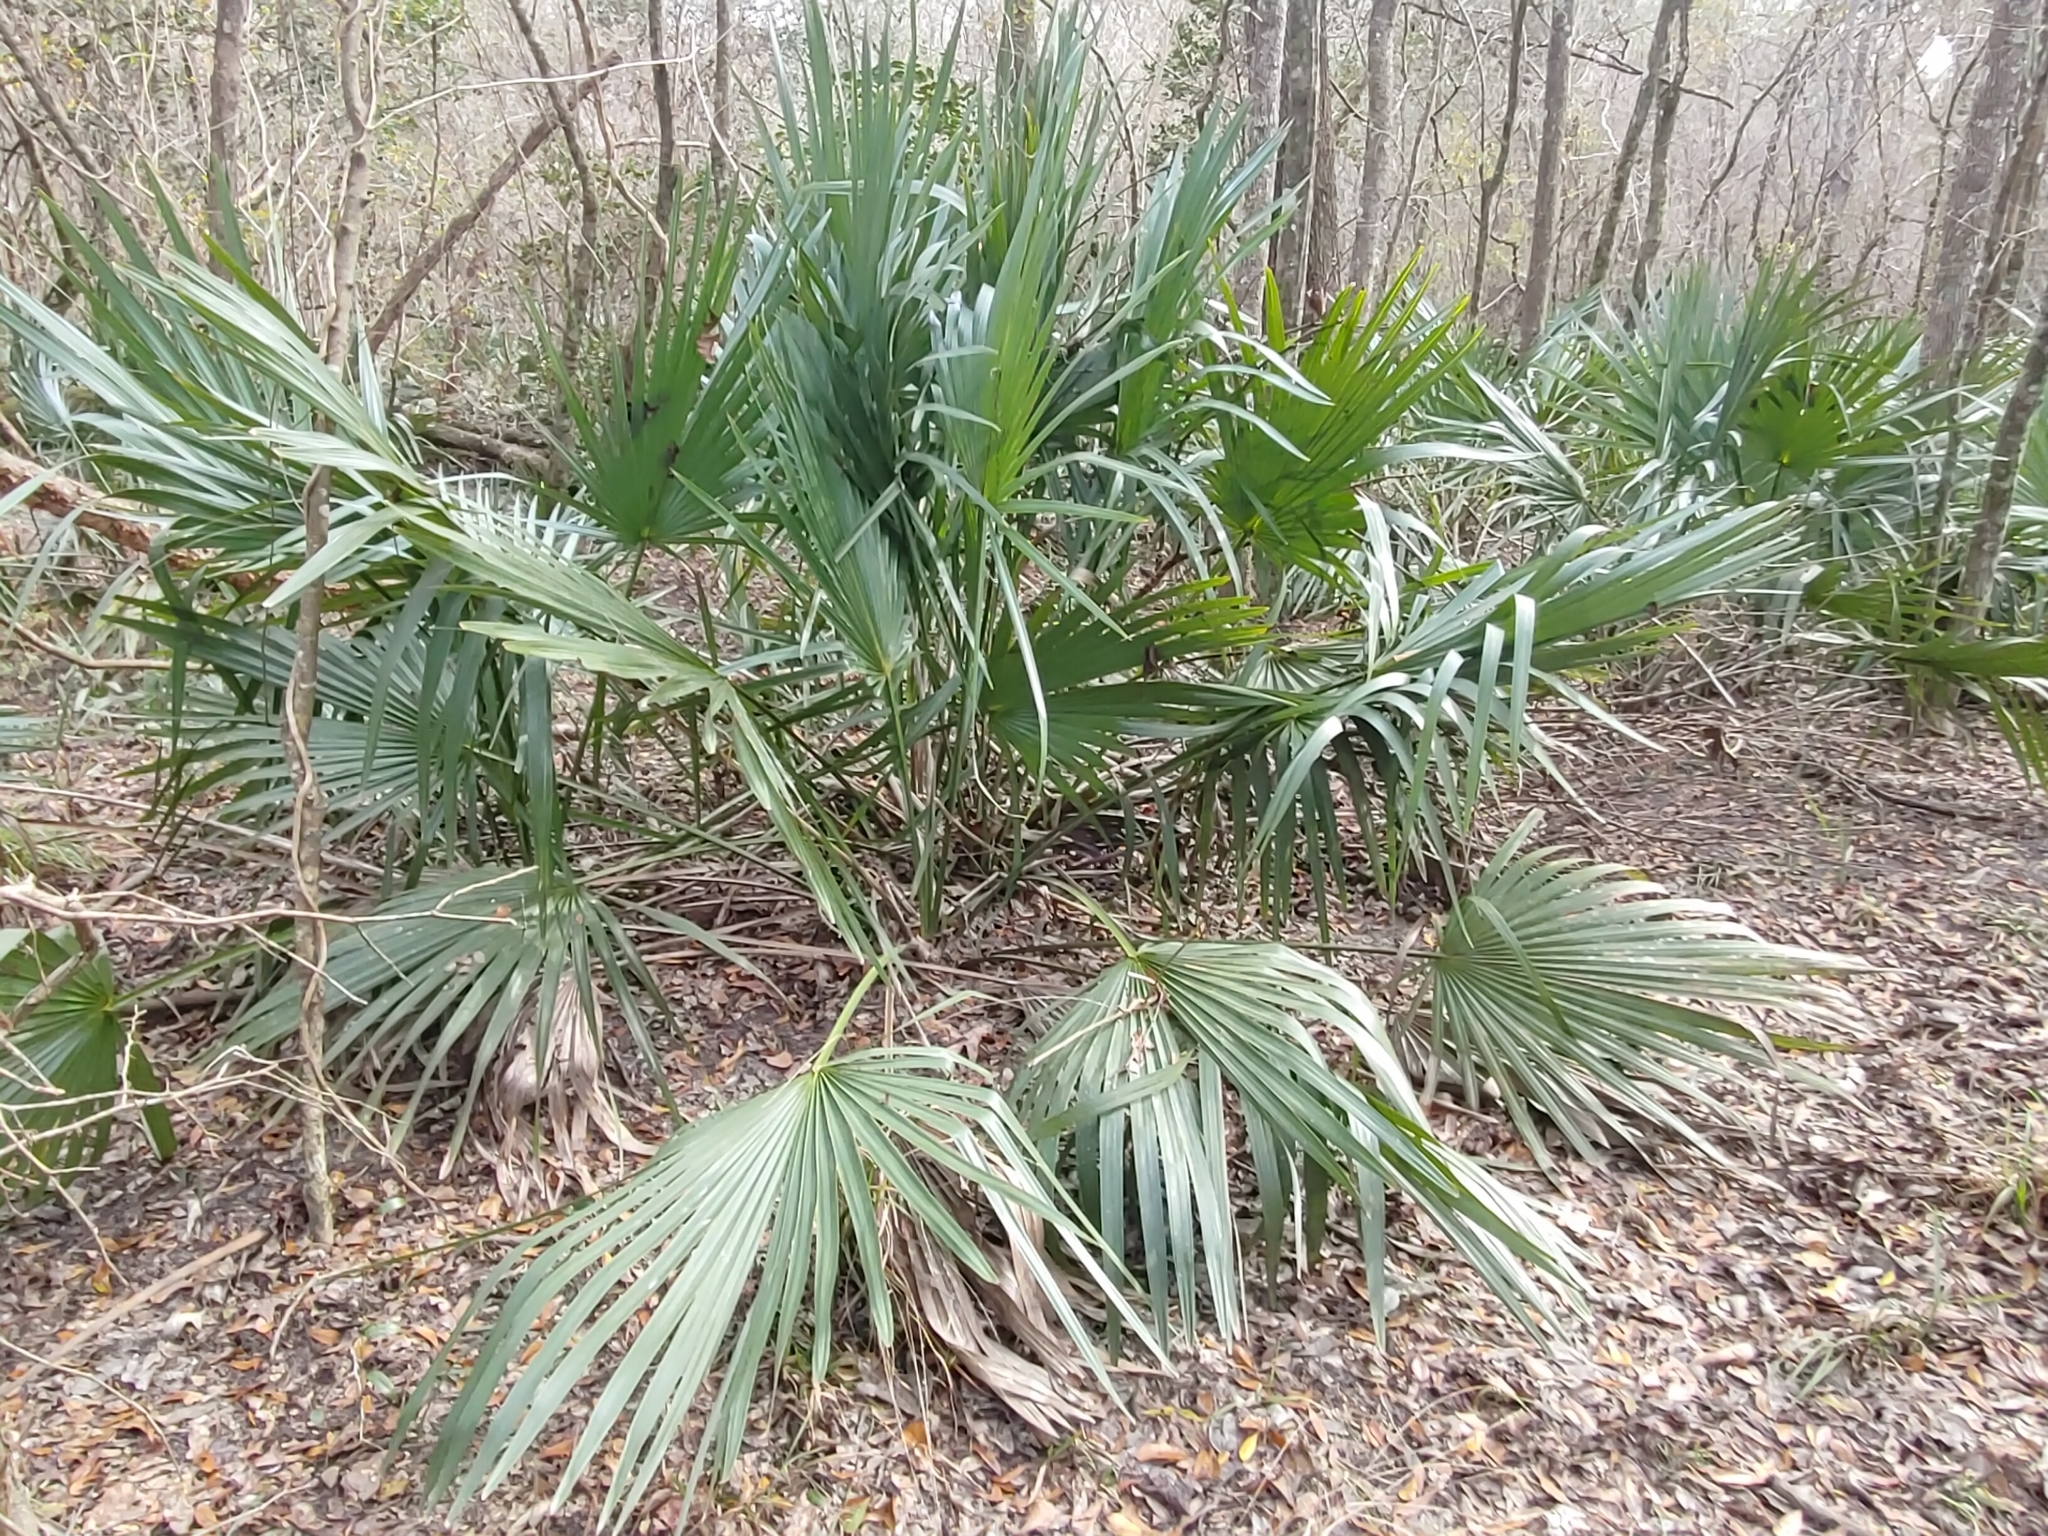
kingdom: Plantae
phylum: Tracheophyta
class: Liliopsida
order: Arecales
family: Arecaceae
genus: Sabal
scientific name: Sabal minor
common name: Dwarf palmetto
